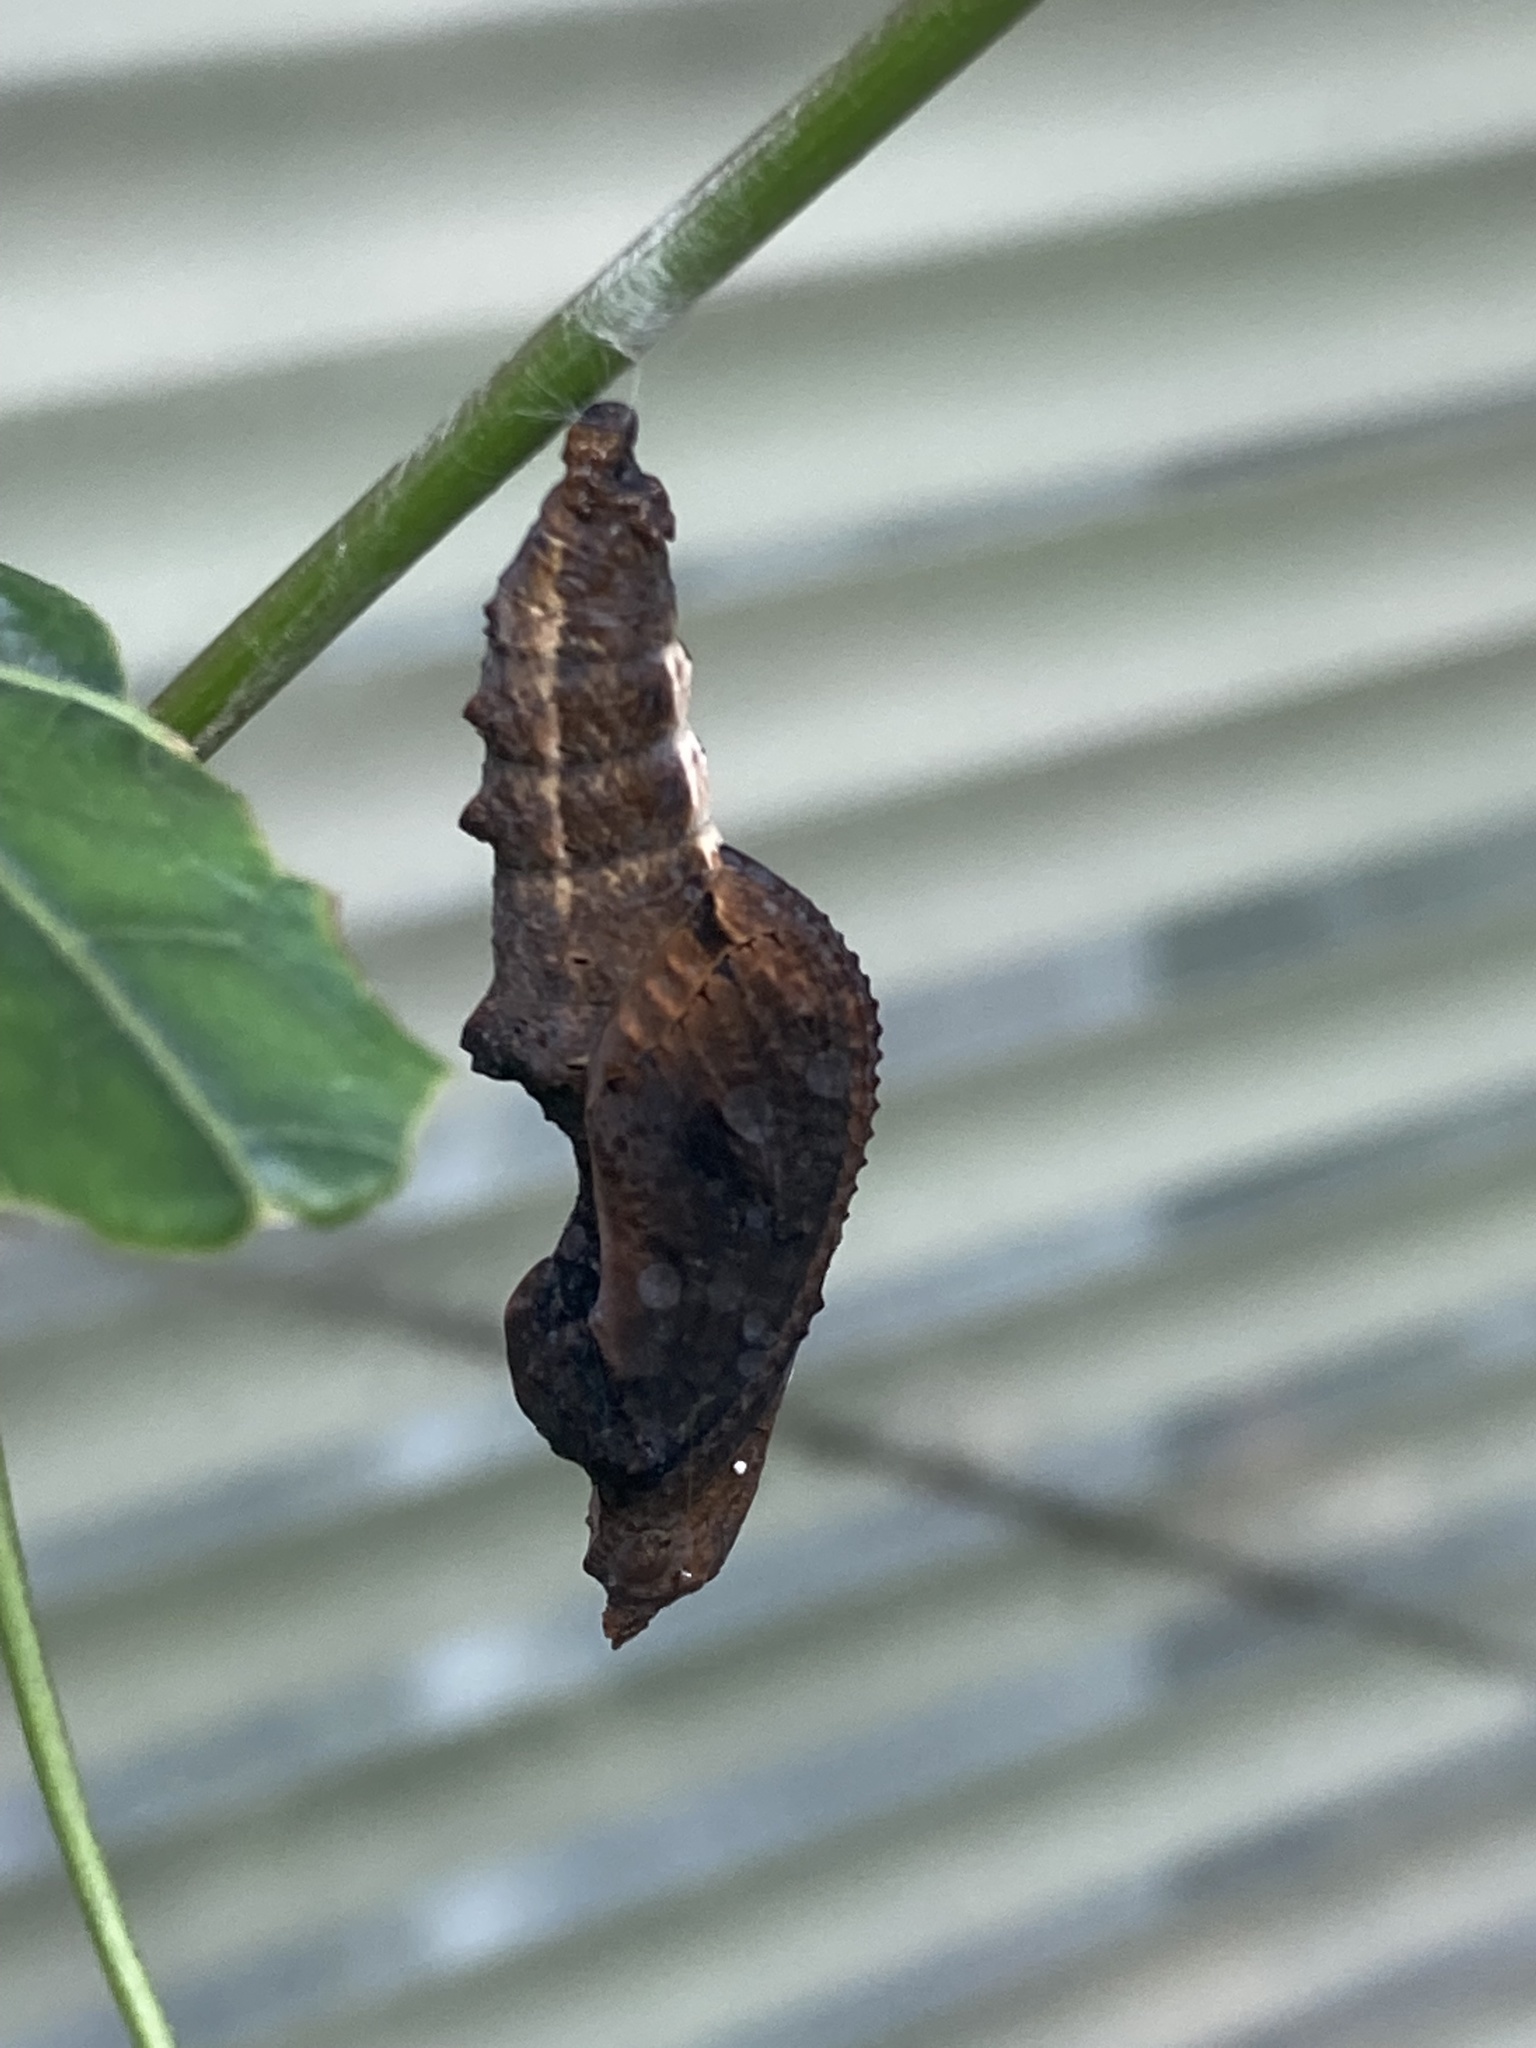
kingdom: Animalia
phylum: Arthropoda
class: Insecta
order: Lepidoptera
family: Nymphalidae
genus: Dione
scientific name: Dione vanillae
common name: Gulf fritillary
